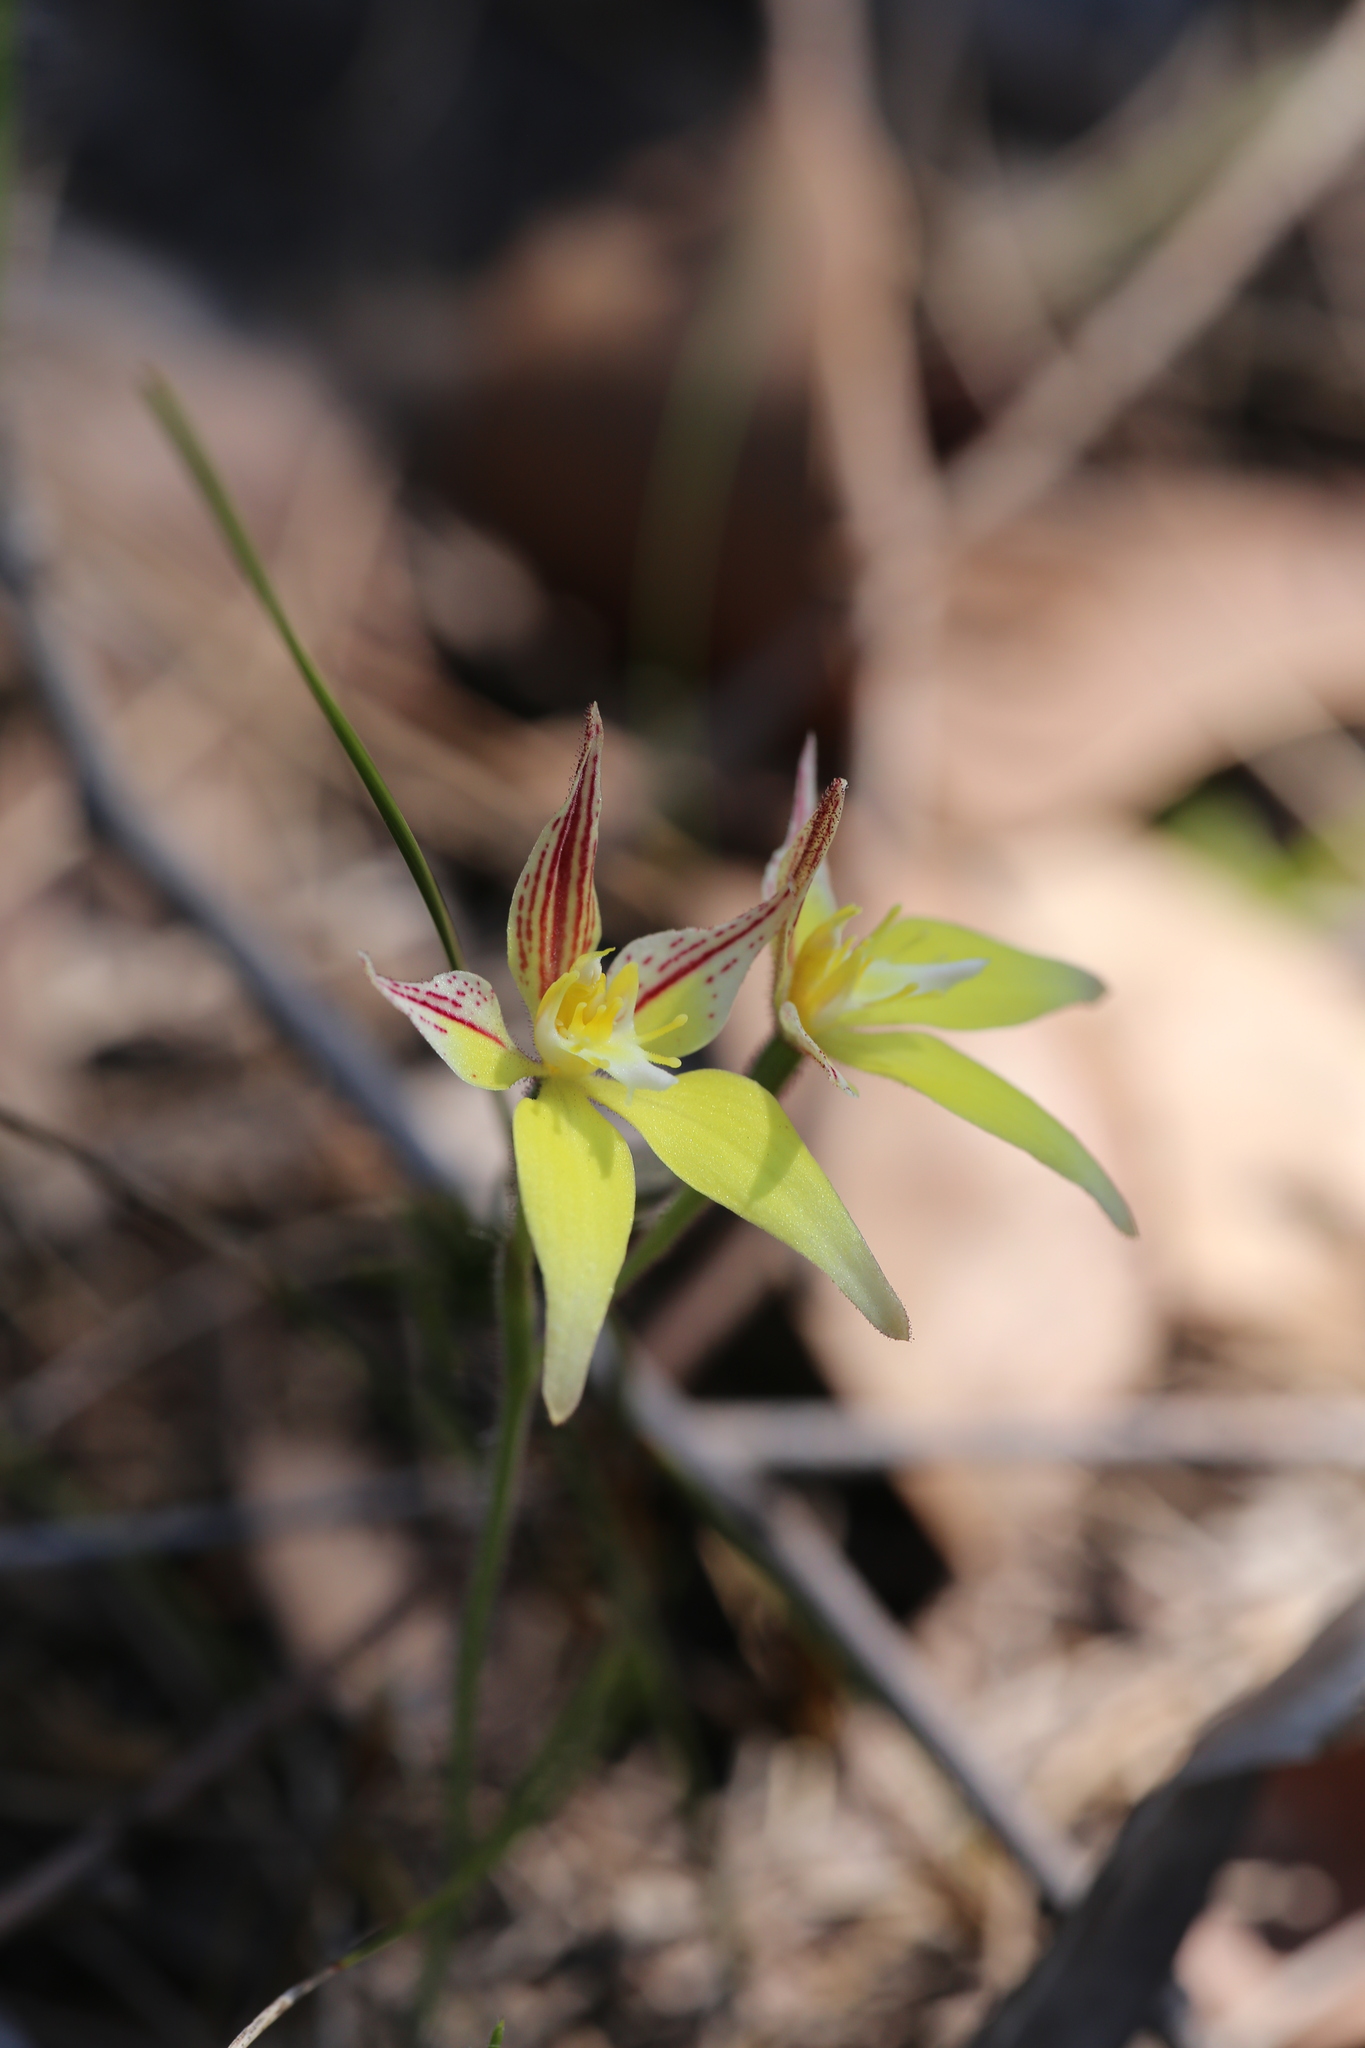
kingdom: Plantae
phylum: Tracheophyta
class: Liliopsida
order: Asparagales
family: Orchidaceae
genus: Caladenia
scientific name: Caladenia flava
